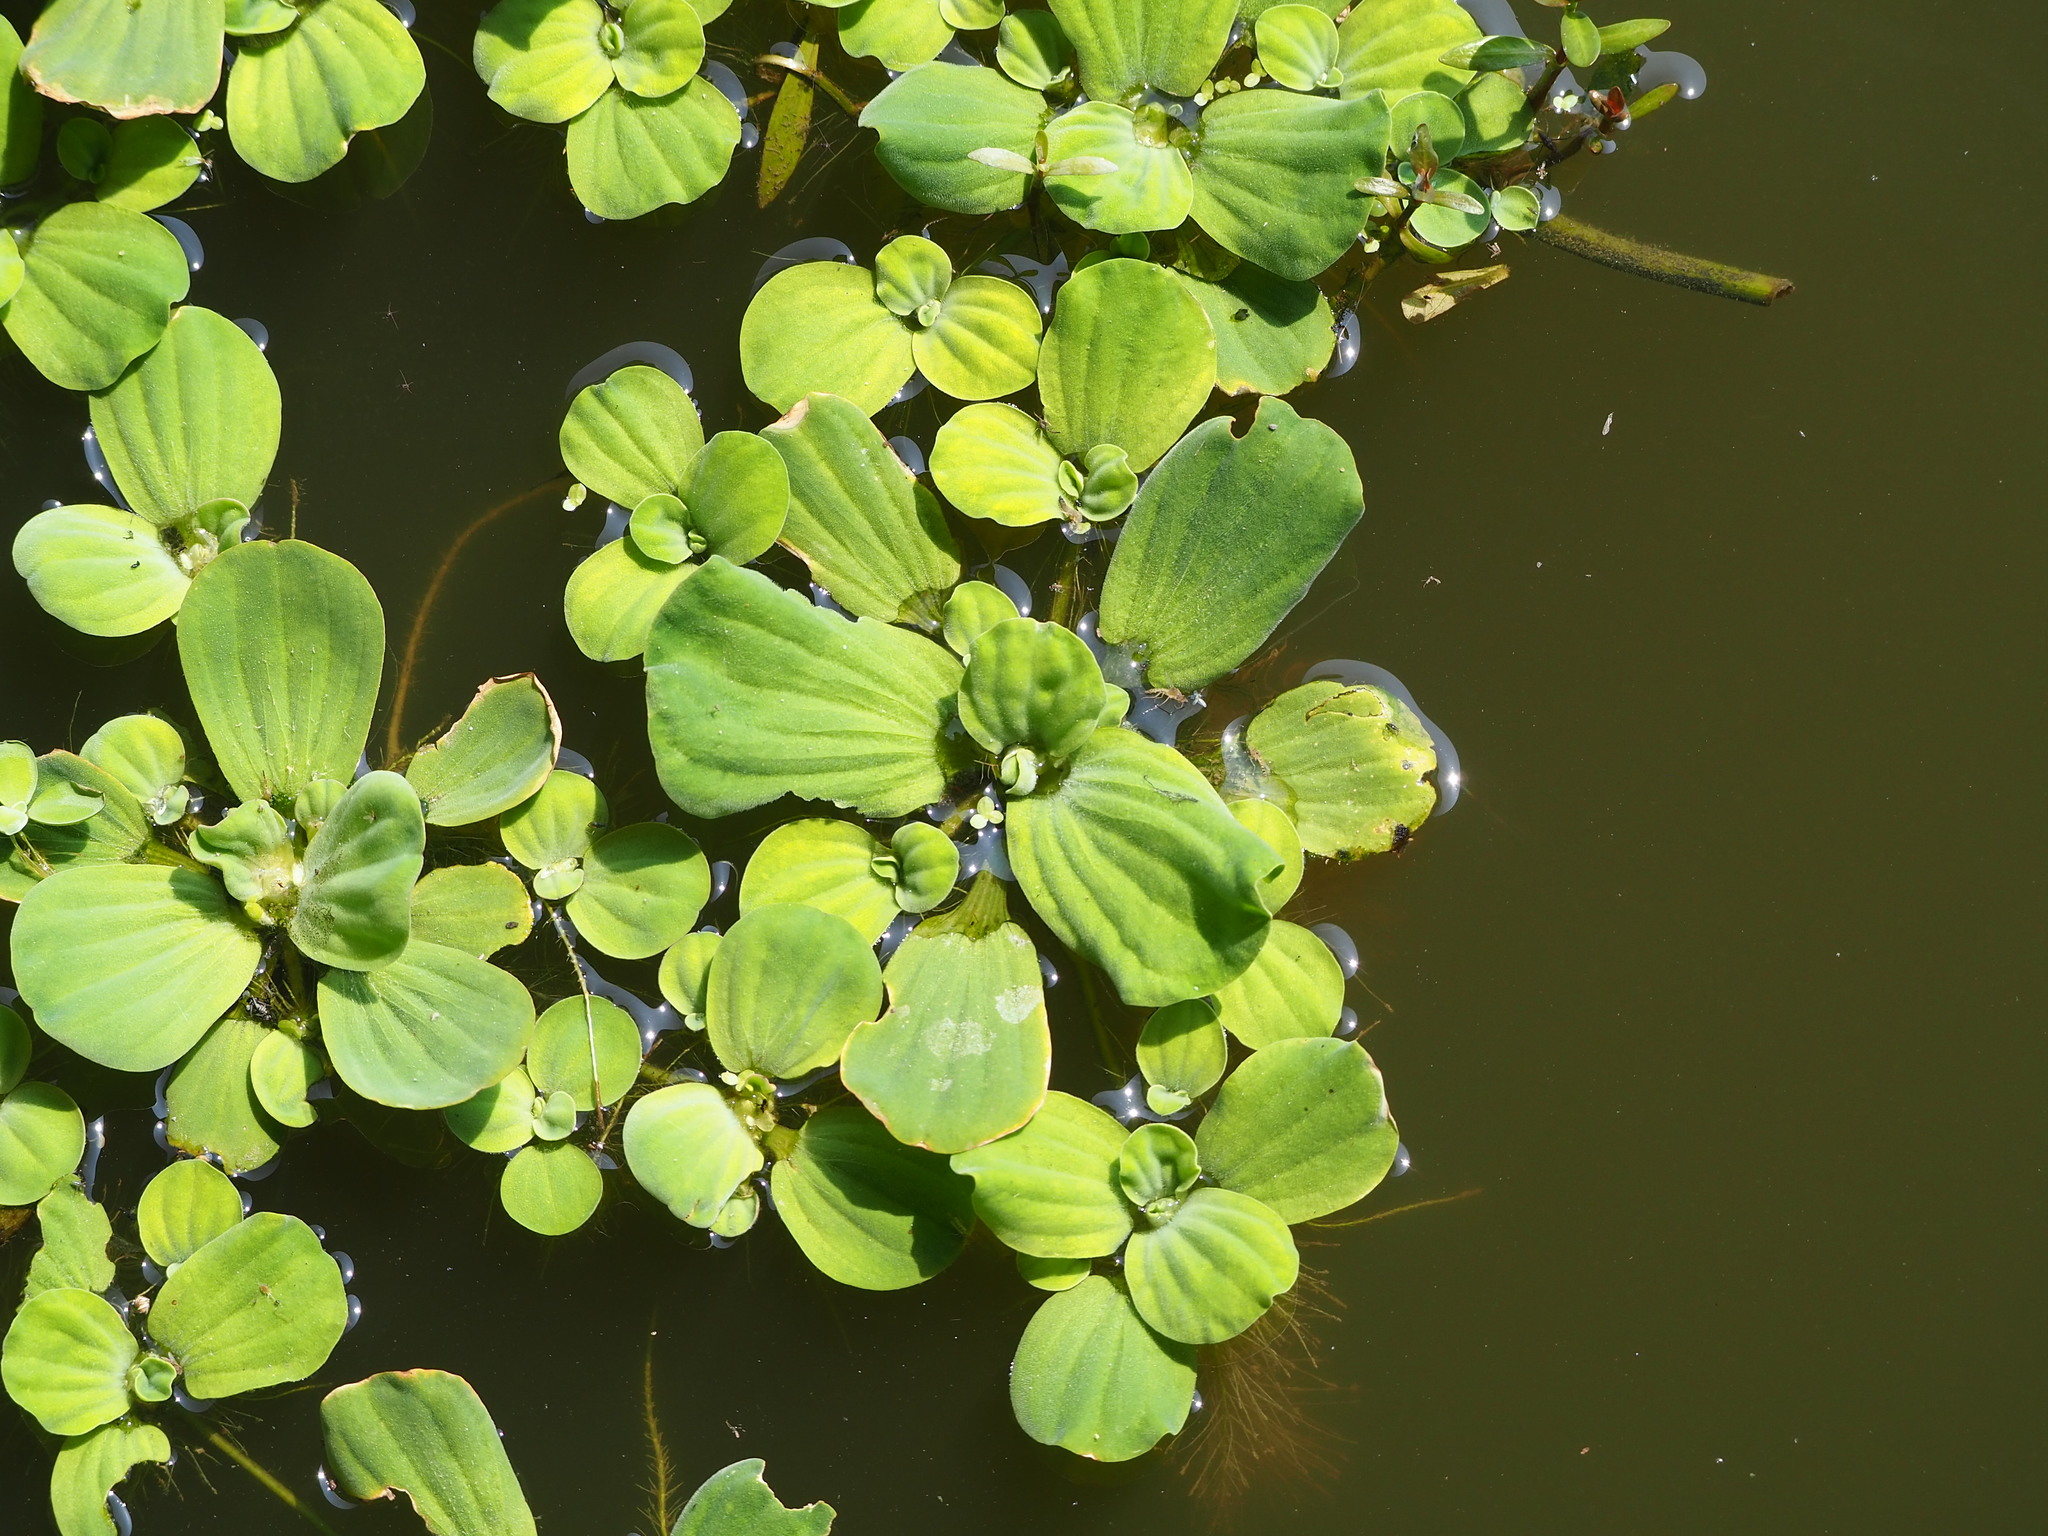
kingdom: Plantae
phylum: Tracheophyta
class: Liliopsida
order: Alismatales
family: Araceae
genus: Pistia
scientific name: Pistia stratiotes
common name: Water lettuce
